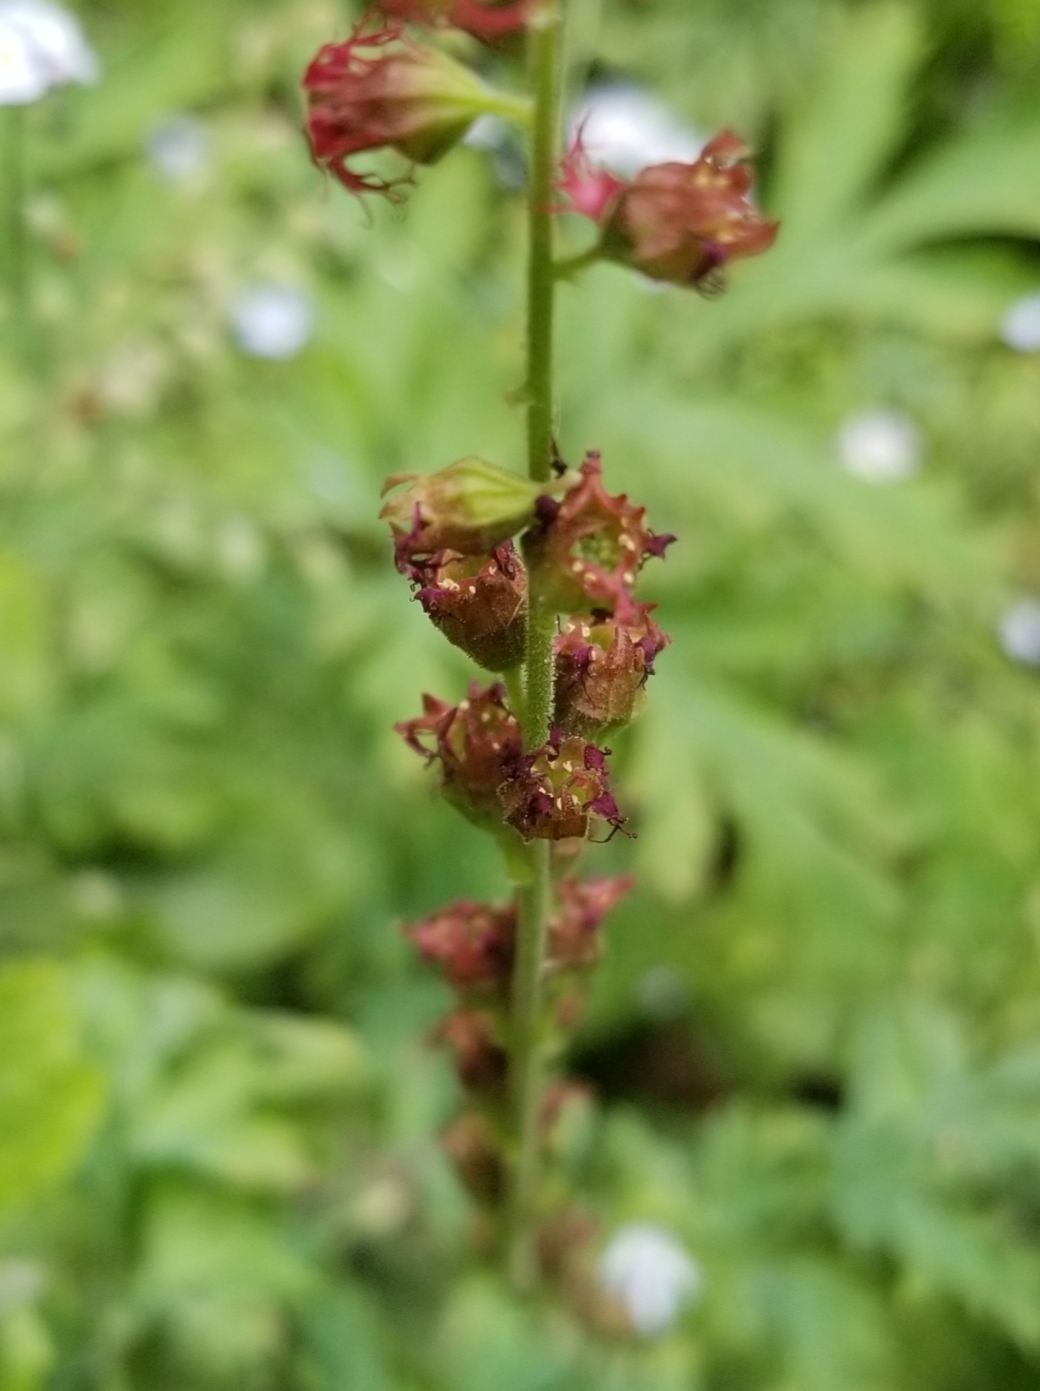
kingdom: Plantae
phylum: Tracheophyta
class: Magnoliopsida
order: Saxifragales
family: Saxifragaceae
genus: Tellima
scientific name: Tellima grandiflora
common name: Fringecups
